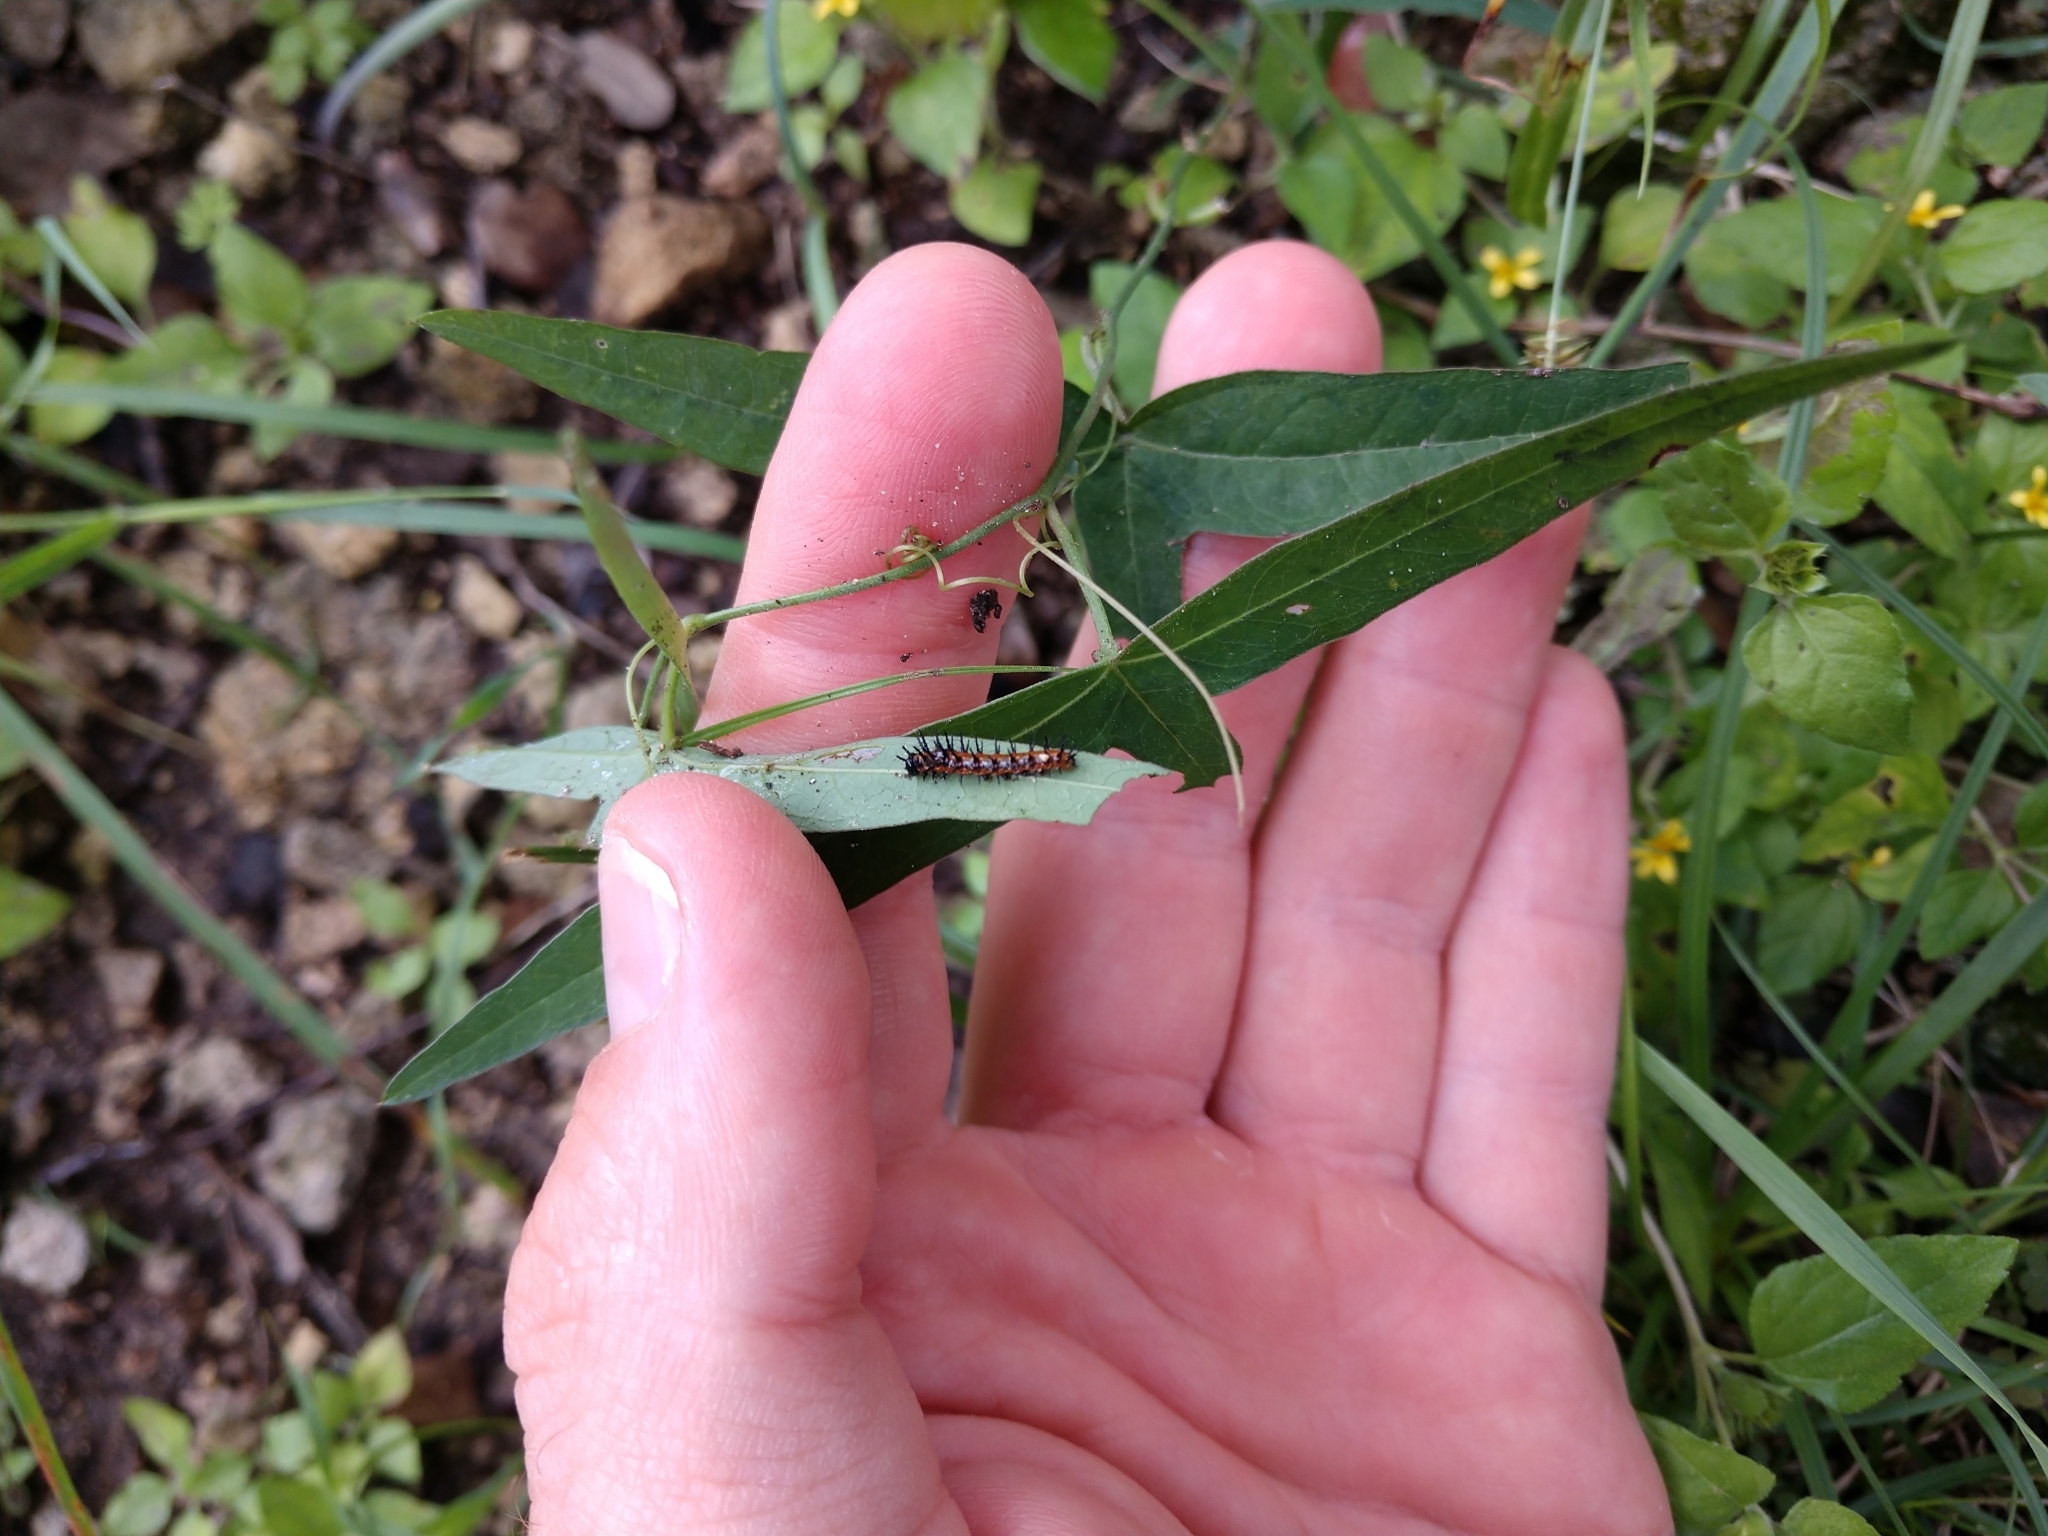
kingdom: Animalia
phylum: Arthropoda
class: Insecta
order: Lepidoptera
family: Nymphalidae
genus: Dione
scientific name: Dione vanillae
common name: Gulf fritillary
